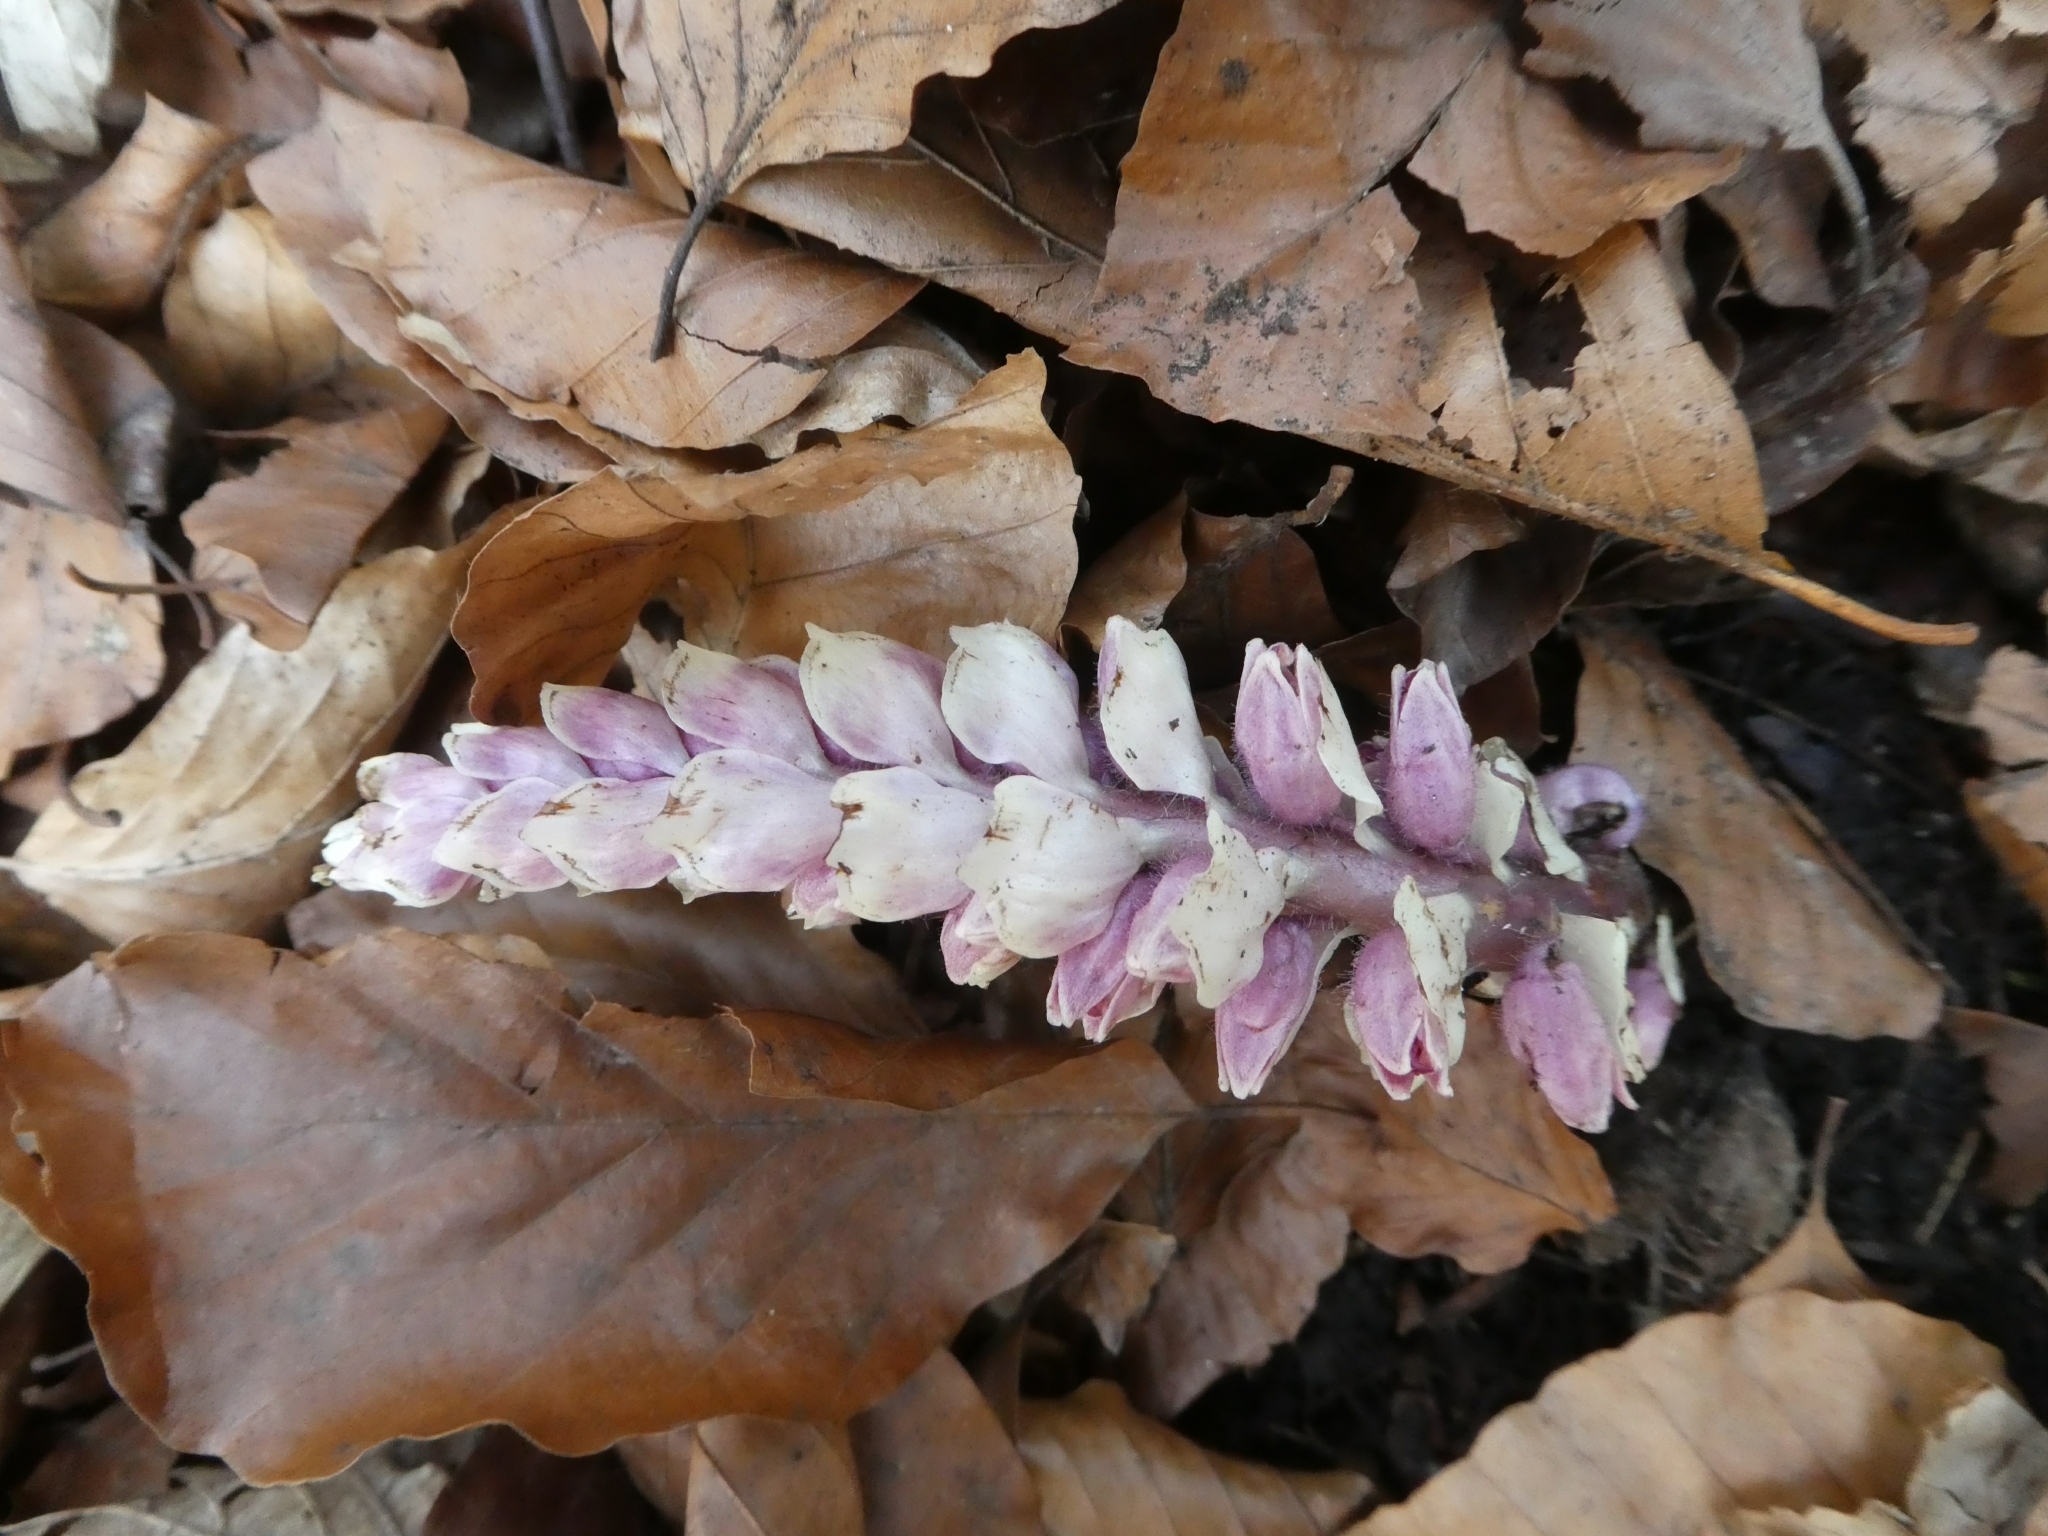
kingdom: Plantae
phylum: Tracheophyta
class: Magnoliopsida
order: Lamiales
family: Orobanchaceae
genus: Lathraea
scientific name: Lathraea squamaria
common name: Toothwort
